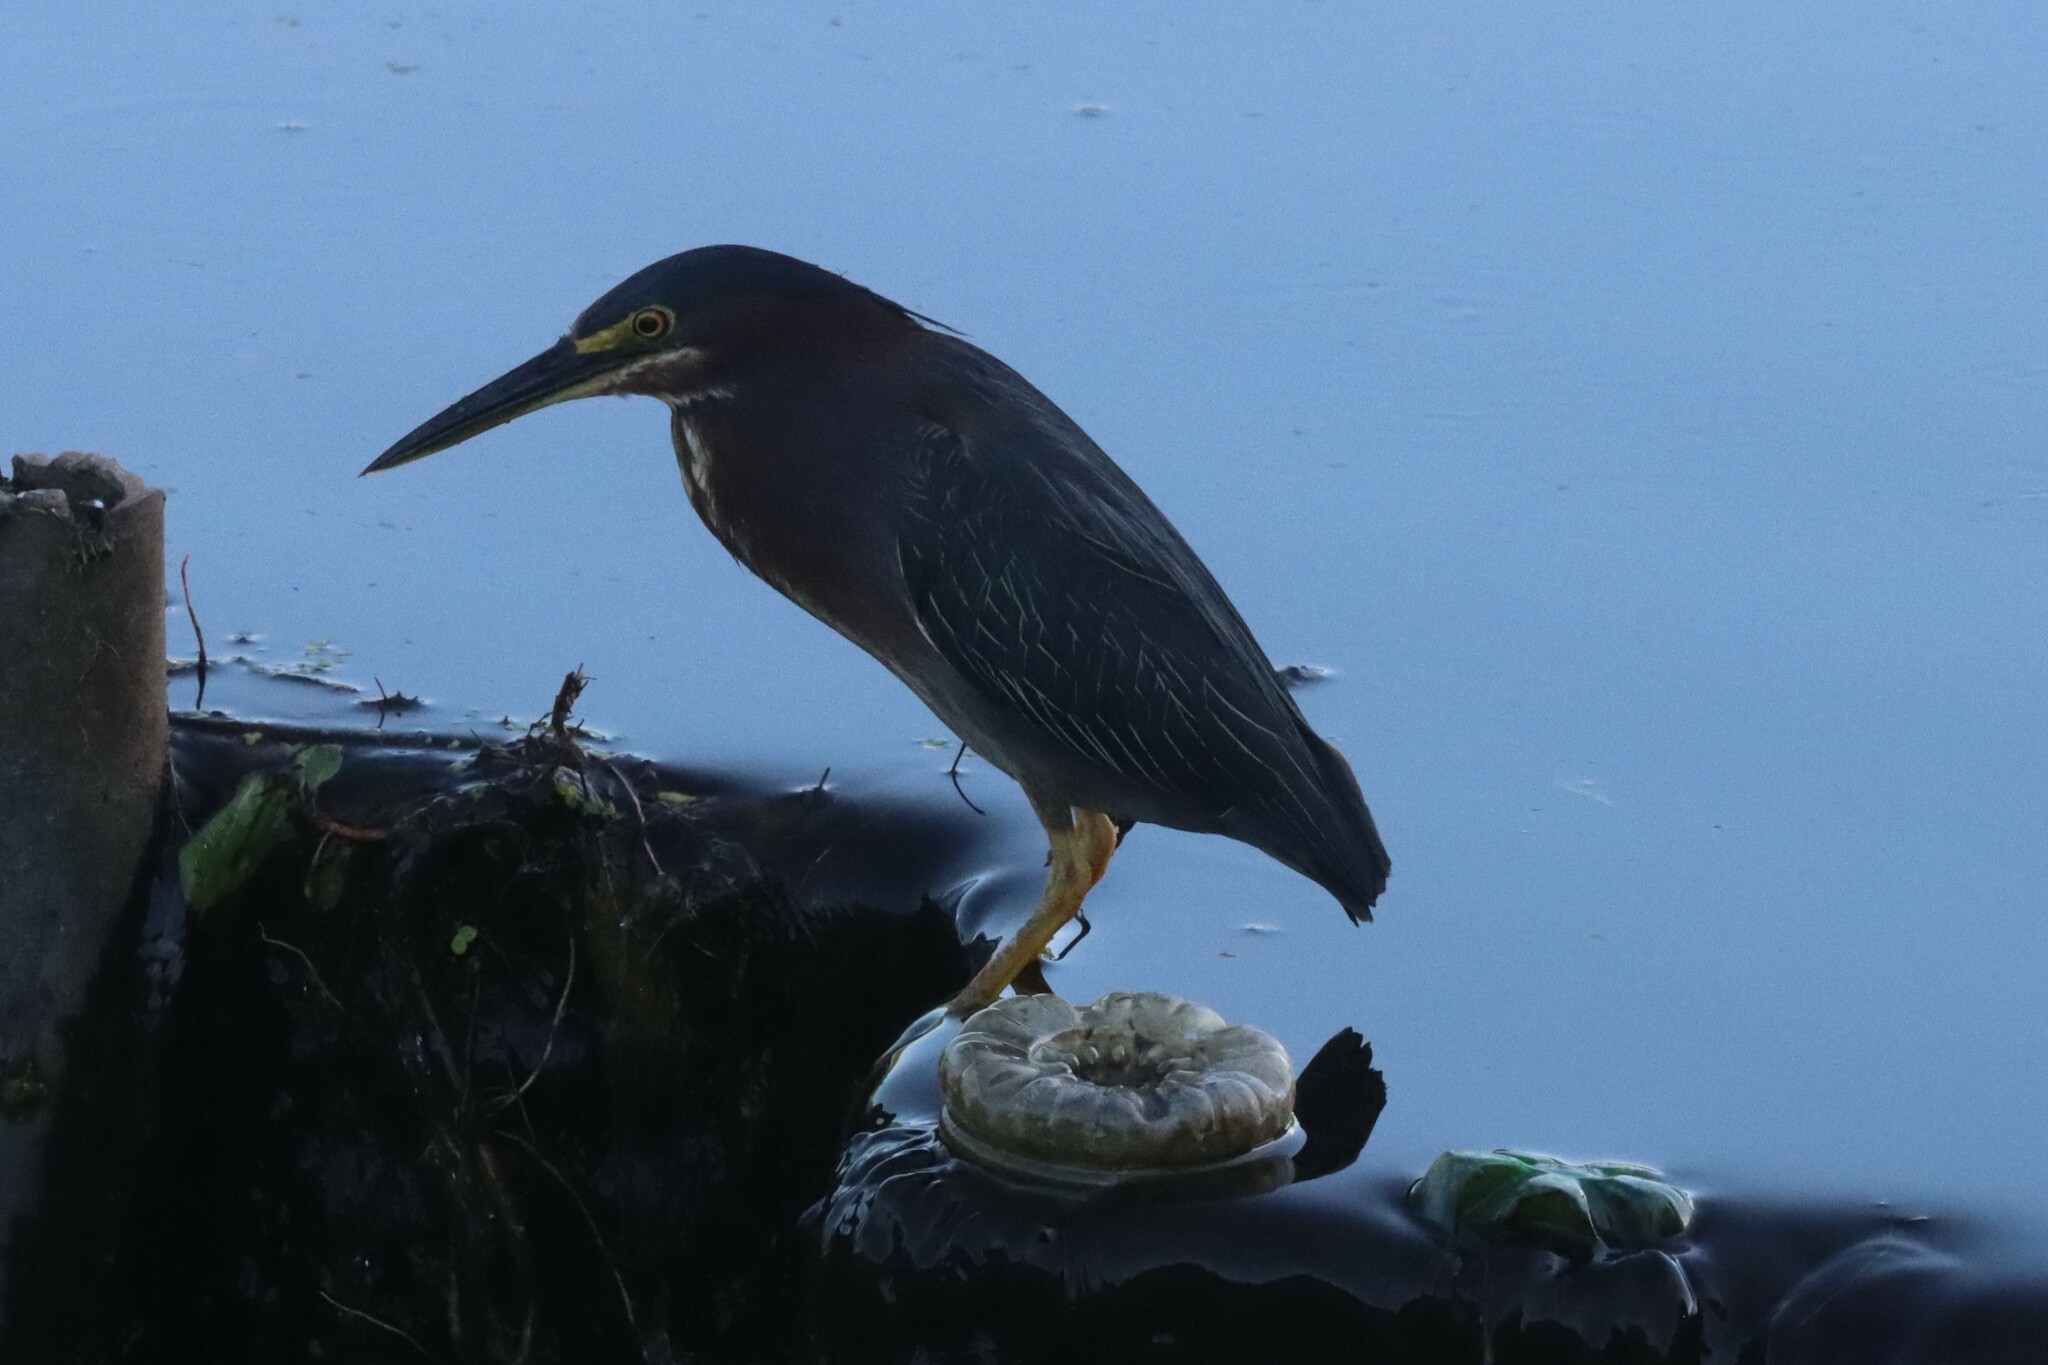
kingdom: Animalia
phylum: Chordata
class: Aves
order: Pelecaniformes
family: Ardeidae
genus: Butorides
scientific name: Butorides virescens
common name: Green heron
